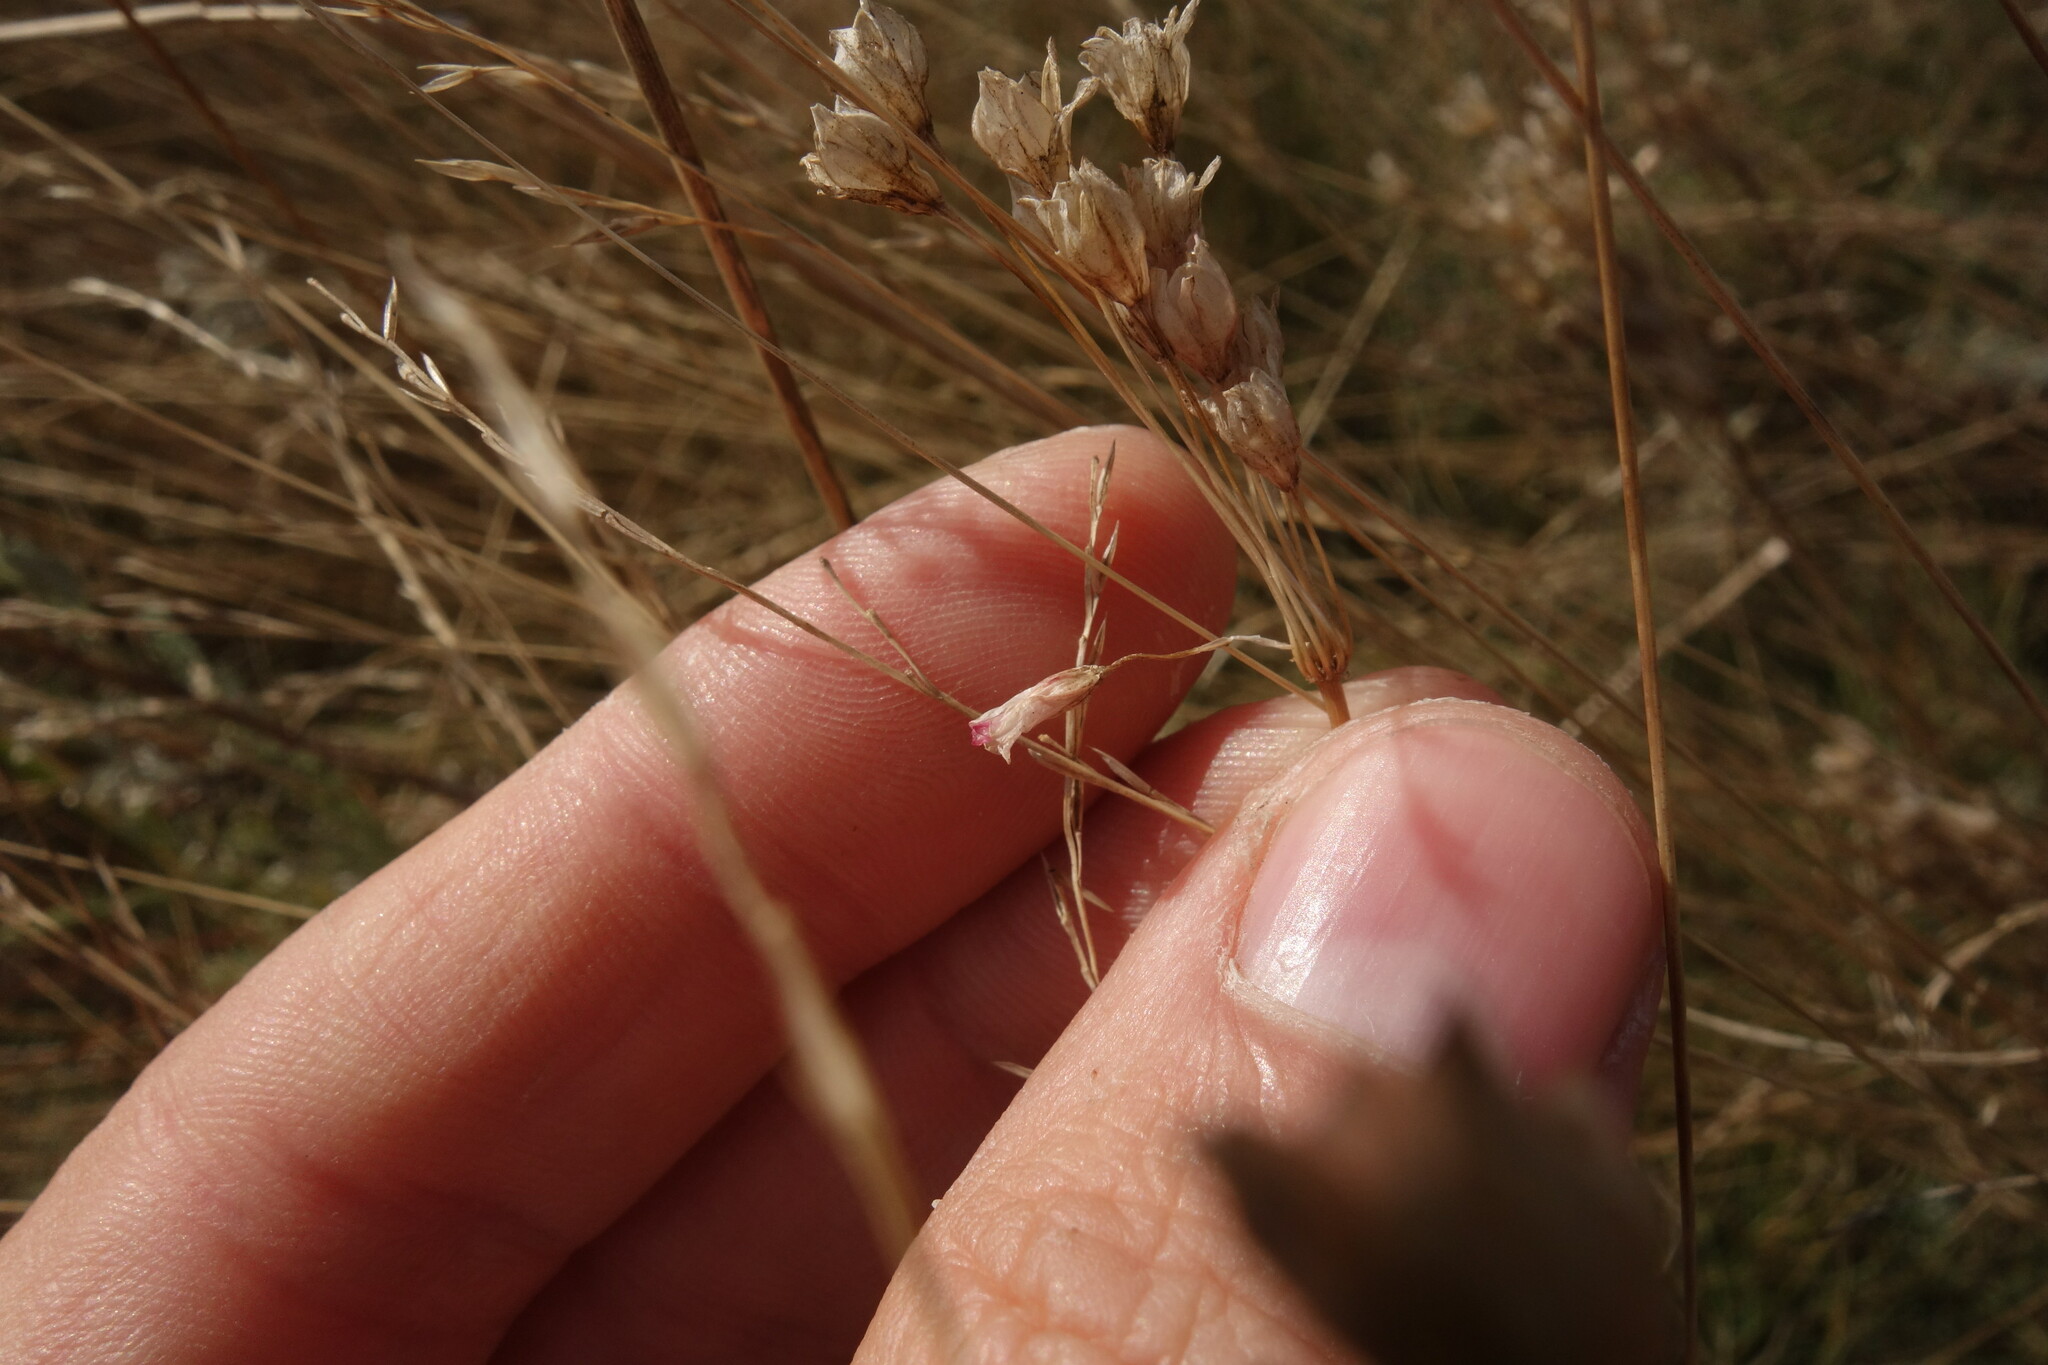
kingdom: Plantae
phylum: Tracheophyta
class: Liliopsida
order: Asparagales
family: Amaryllidaceae
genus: Allium
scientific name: Allium praescissum
